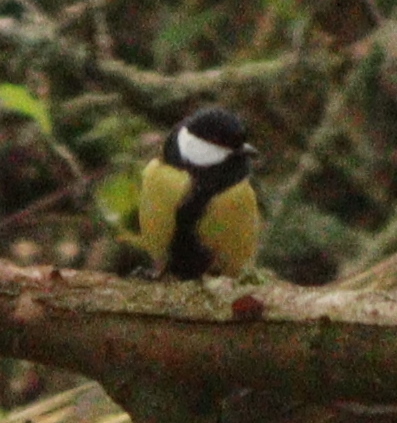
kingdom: Animalia
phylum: Chordata
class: Aves
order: Passeriformes
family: Paridae
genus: Parus
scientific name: Parus major
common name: Great tit
